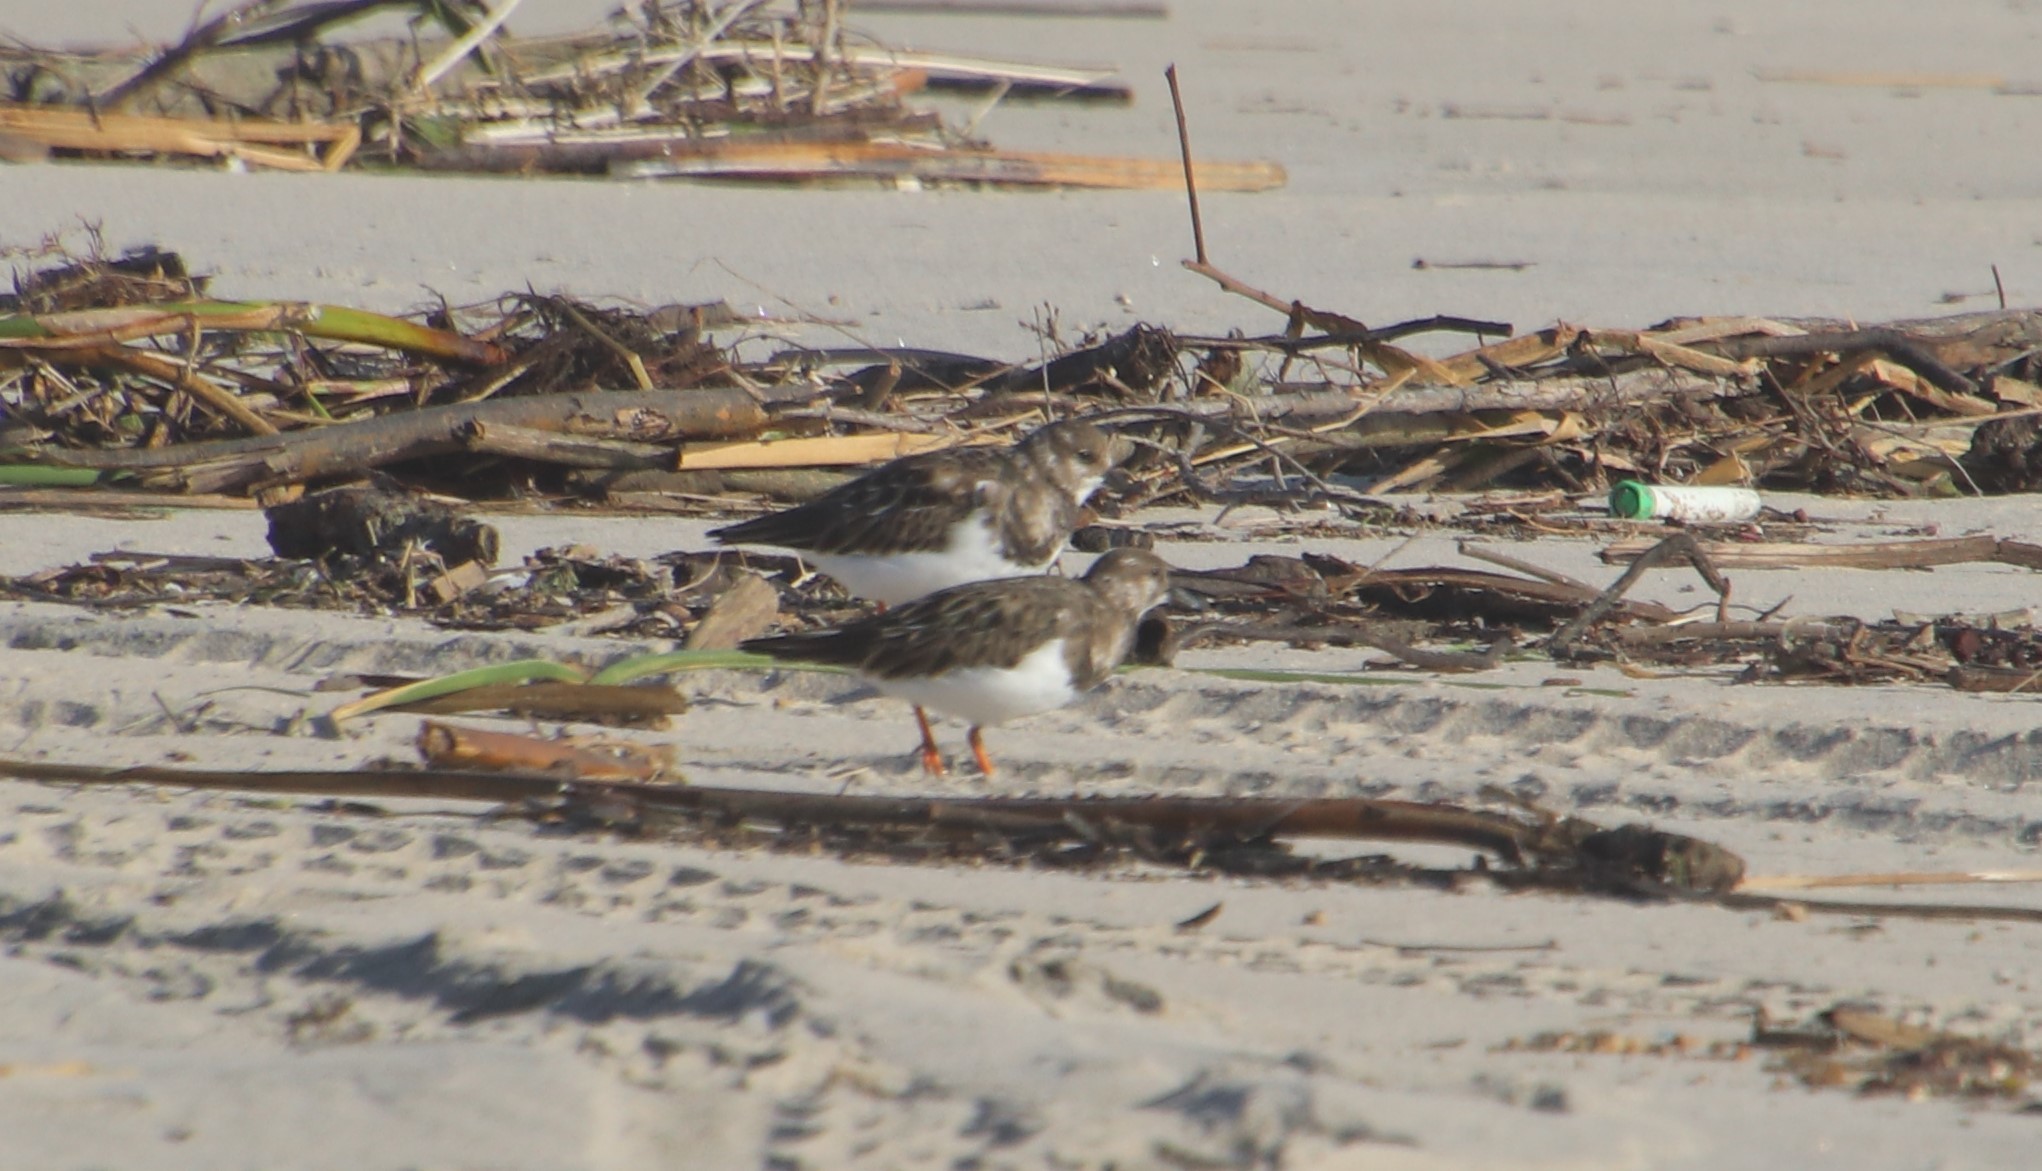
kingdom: Animalia
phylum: Chordata
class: Aves
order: Charadriiformes
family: Scolopacidae
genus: Arenaria
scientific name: Arenaria interpres
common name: Ruddy turnstone
